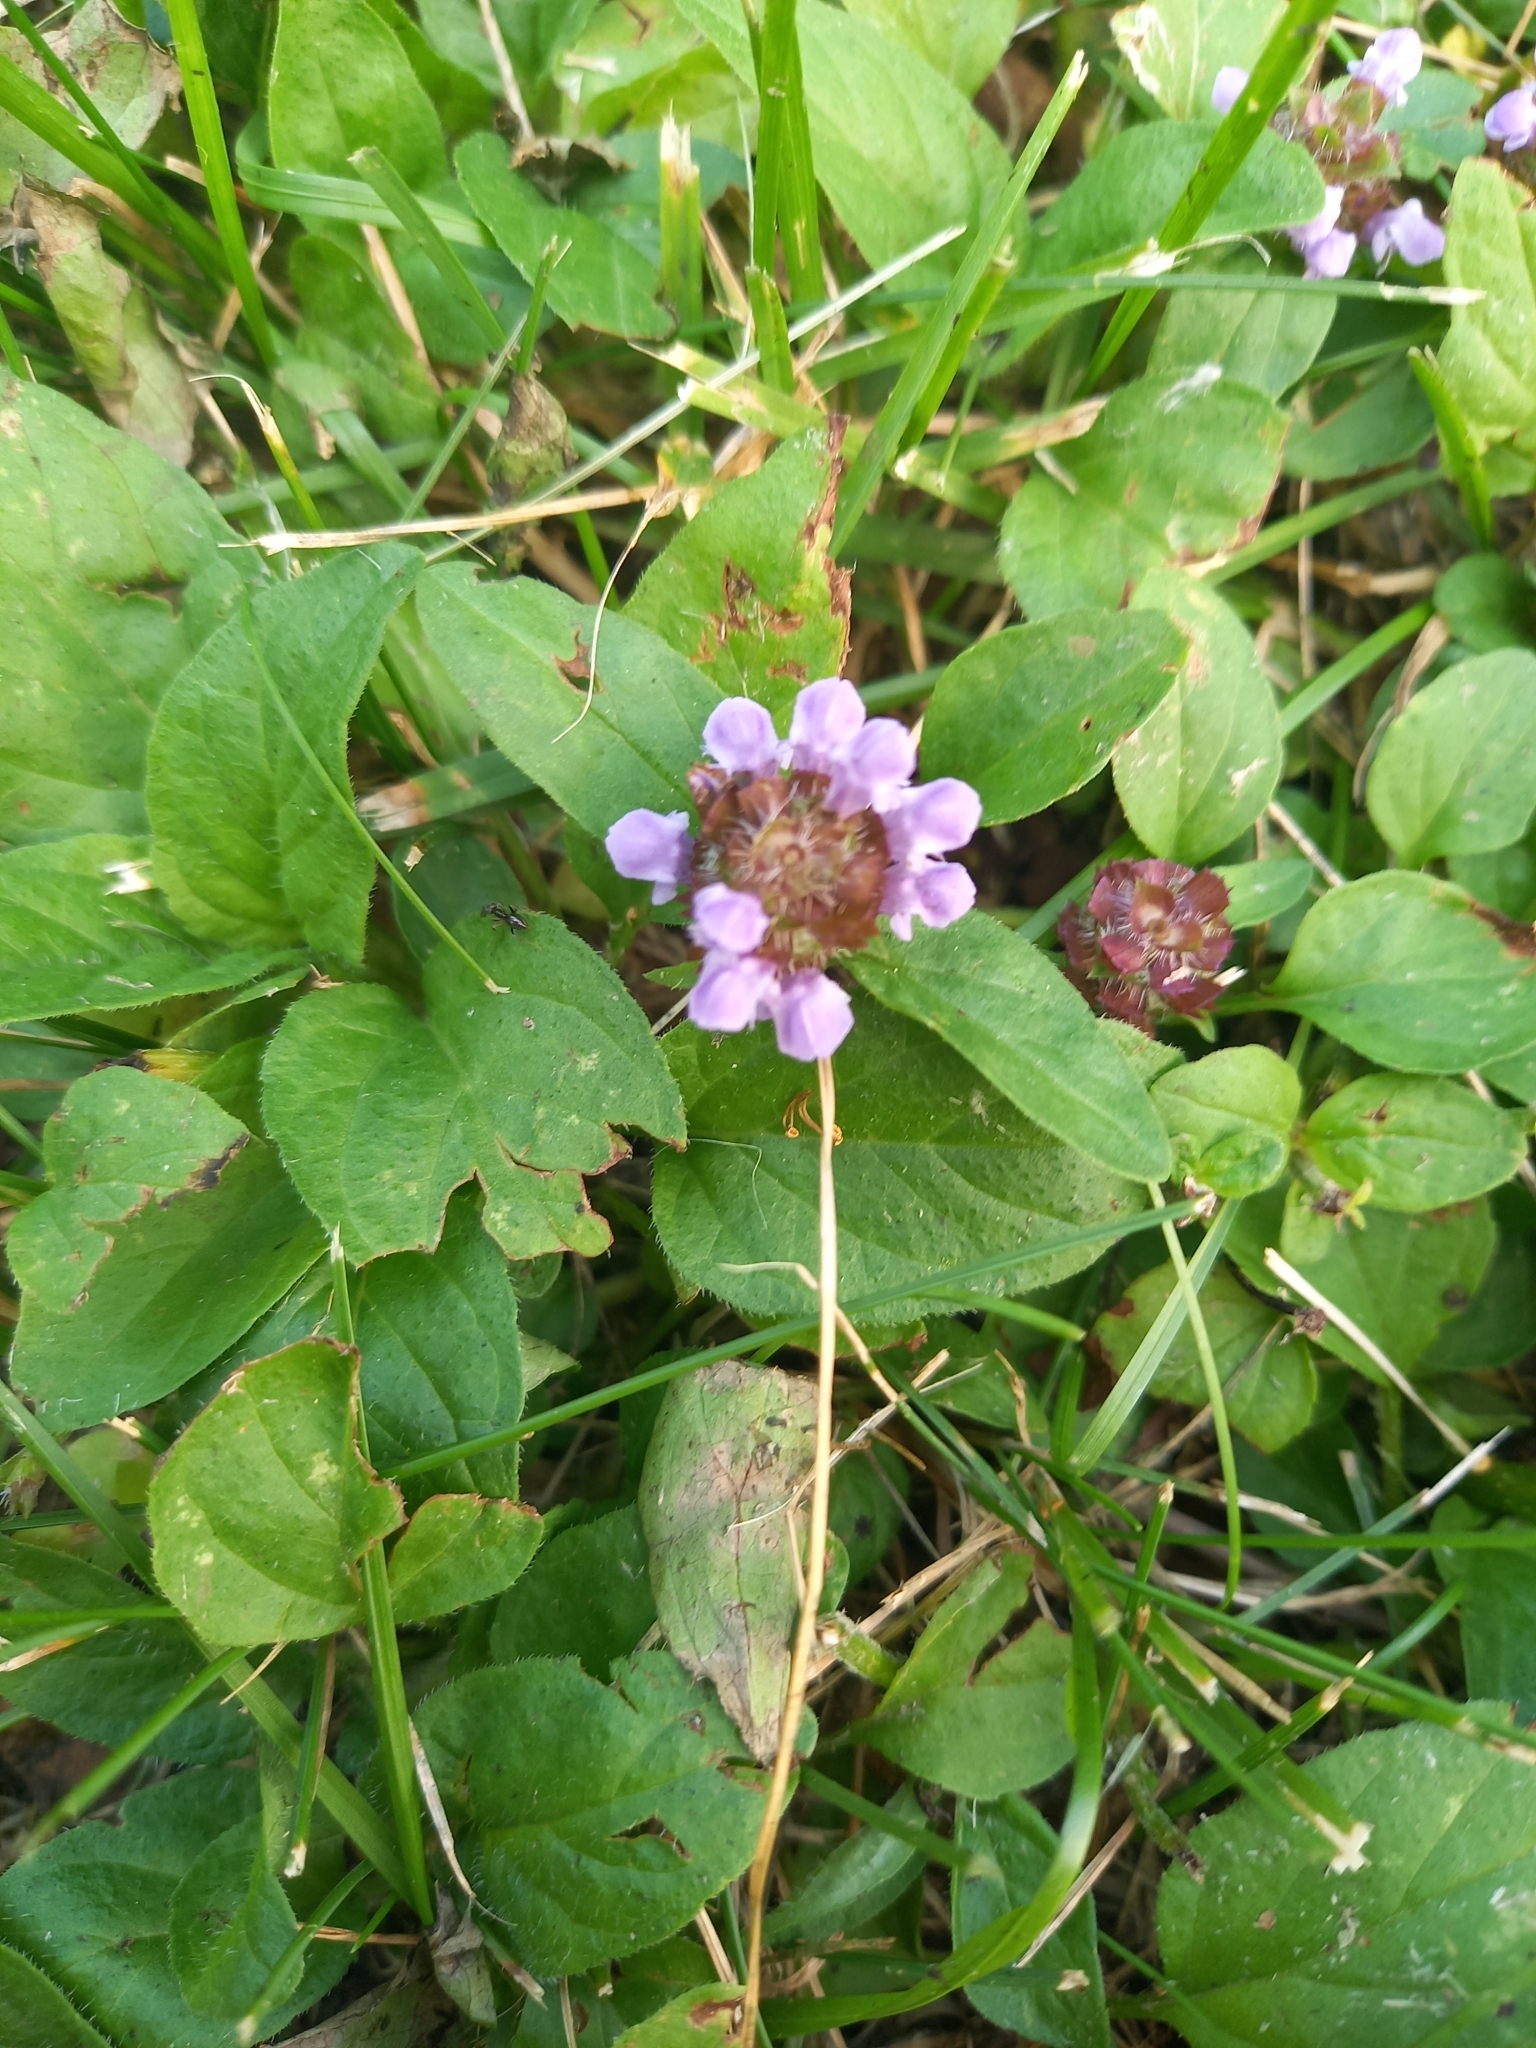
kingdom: Plantae
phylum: Tracheophyta
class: Magnoliopsida
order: Lamiales
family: Lamiaceae
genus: Prunella
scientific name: Prunella vulgaris
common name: Heal-all
